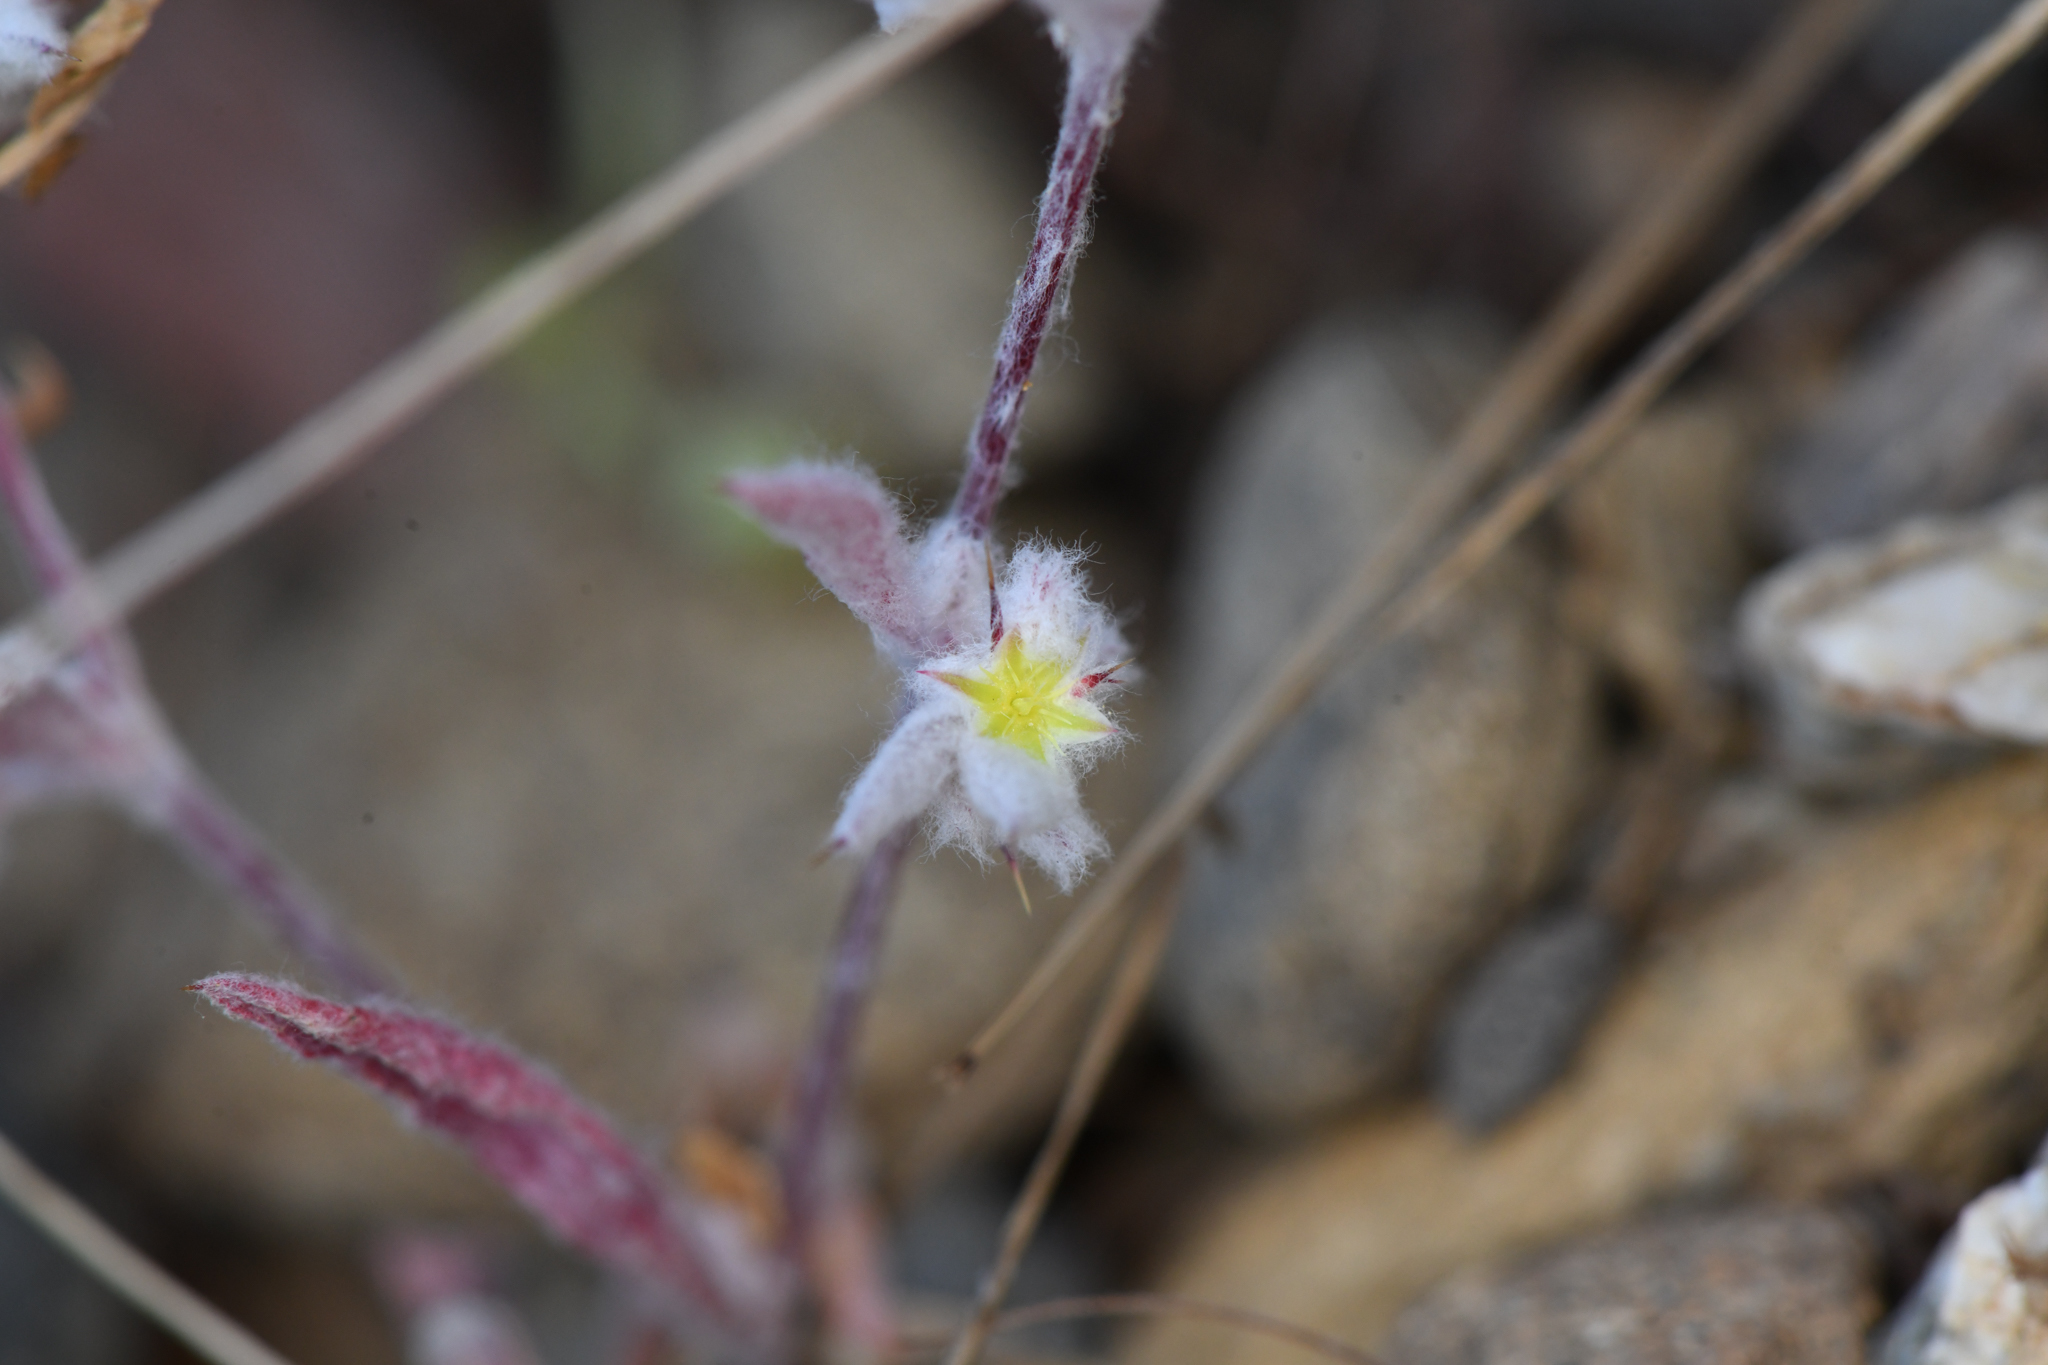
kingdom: Plantae
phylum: Tracheophyta
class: Magnoliopsida
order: Caryophyllales
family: Polygonaceae
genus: Hollisteria
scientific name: Hollisteria lanata
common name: False spike-flower
